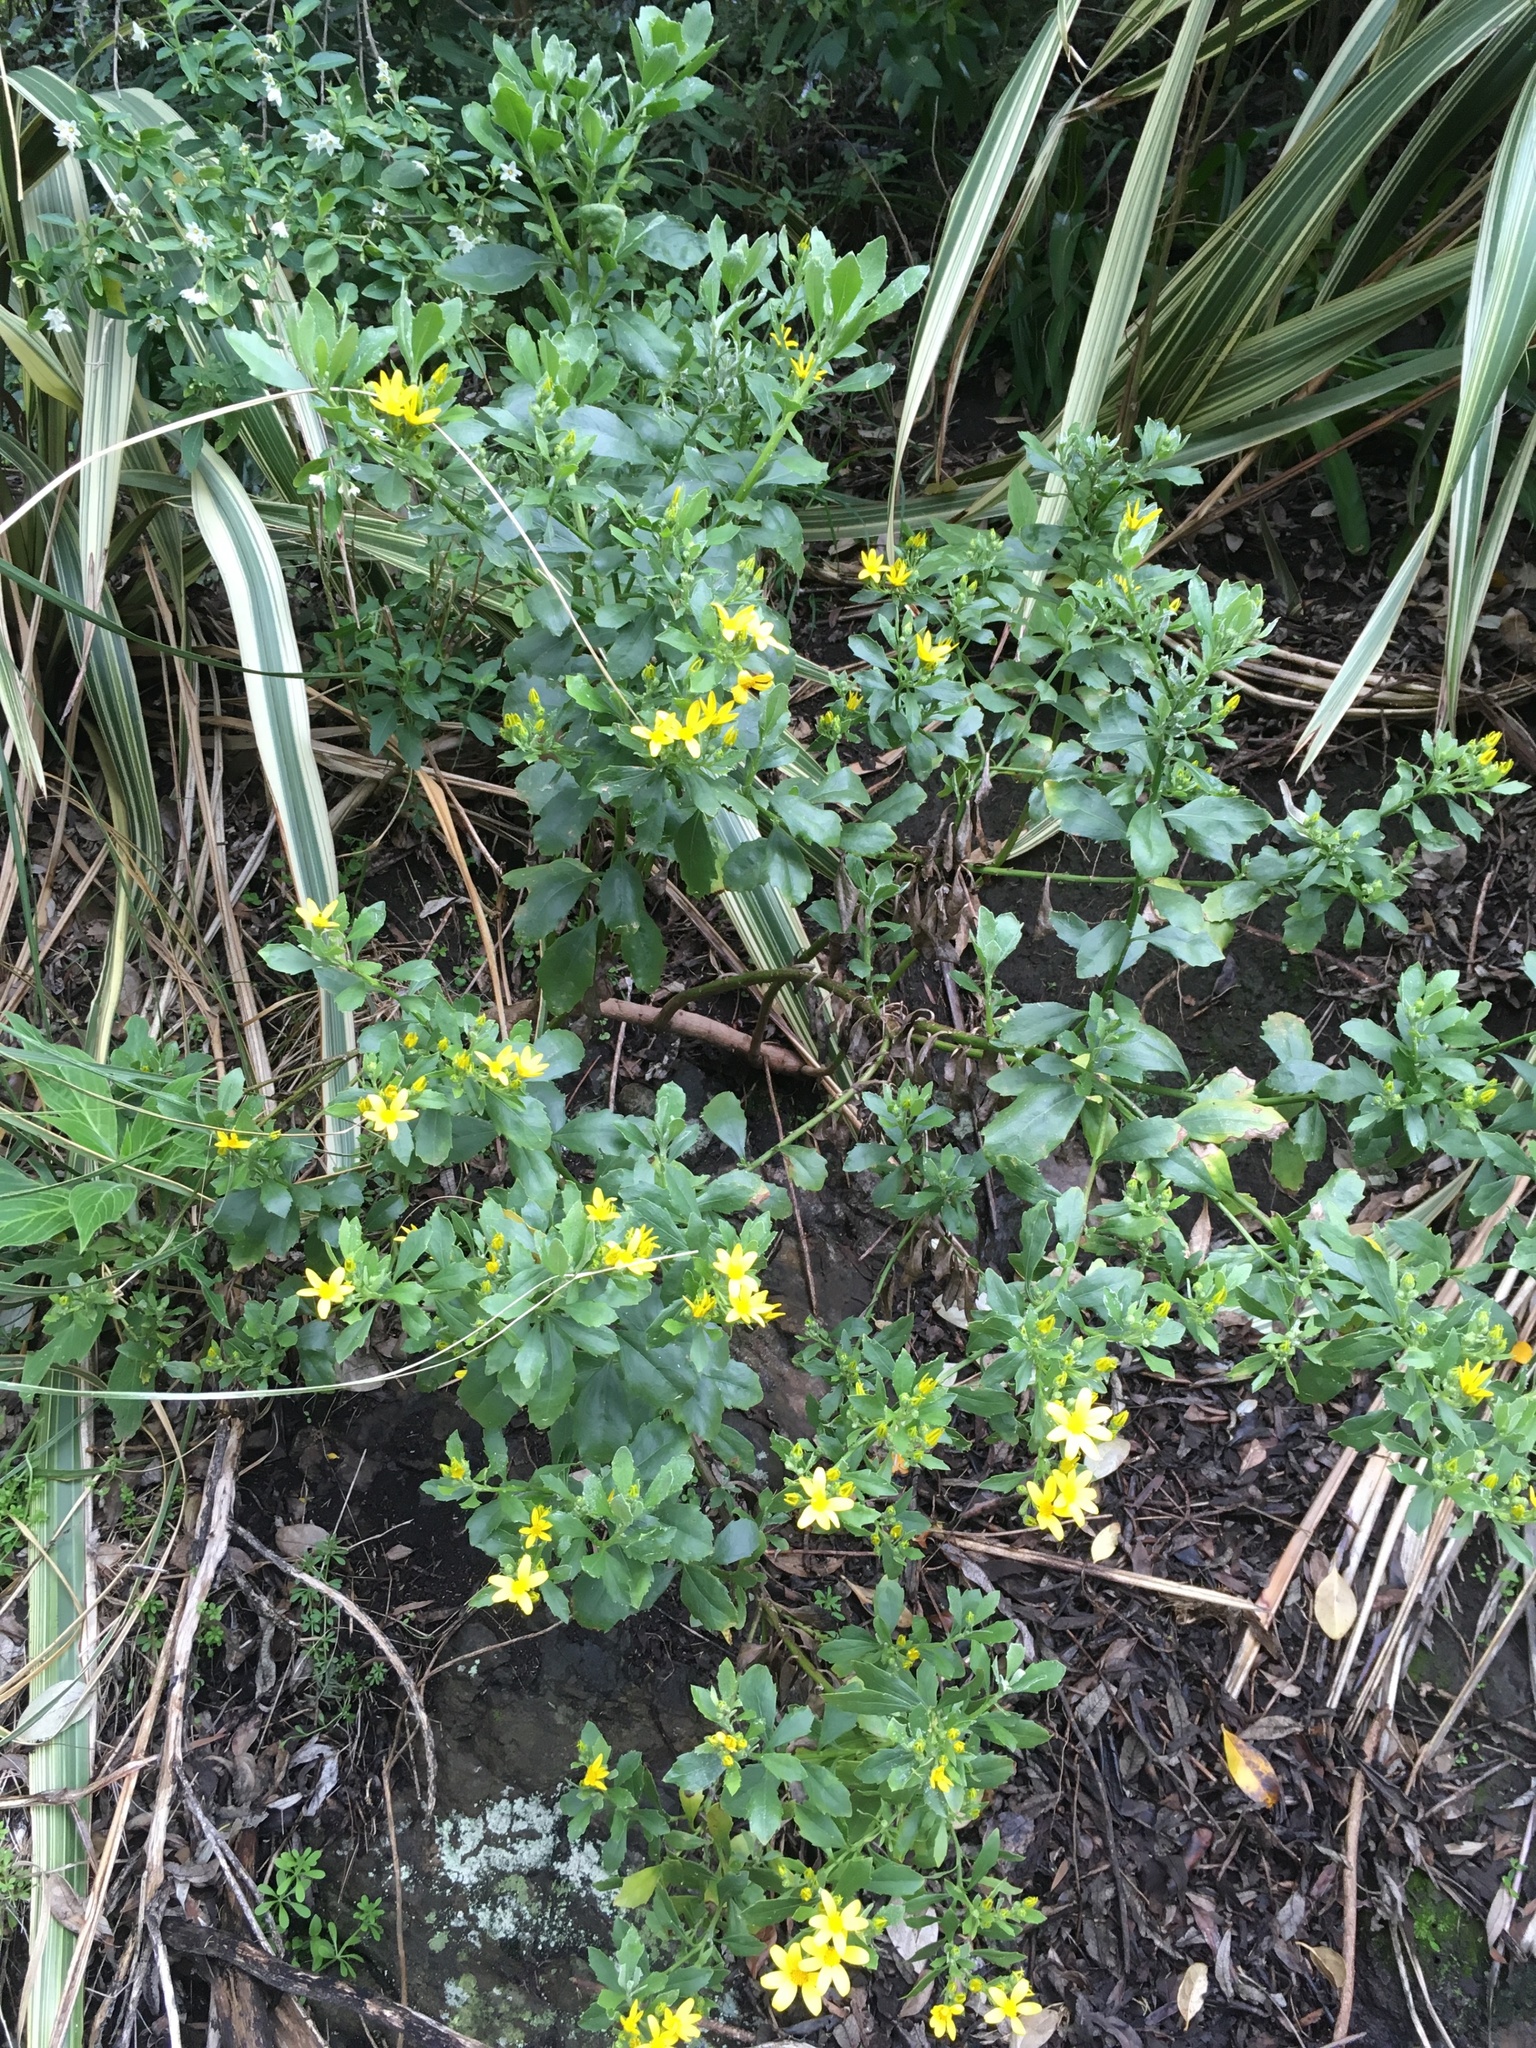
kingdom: Plantae
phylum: Tracheophyta
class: Magnoliopsida
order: Asterales
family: Asteraceae
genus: Osteospermum
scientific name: Osteospermum moniliferum
